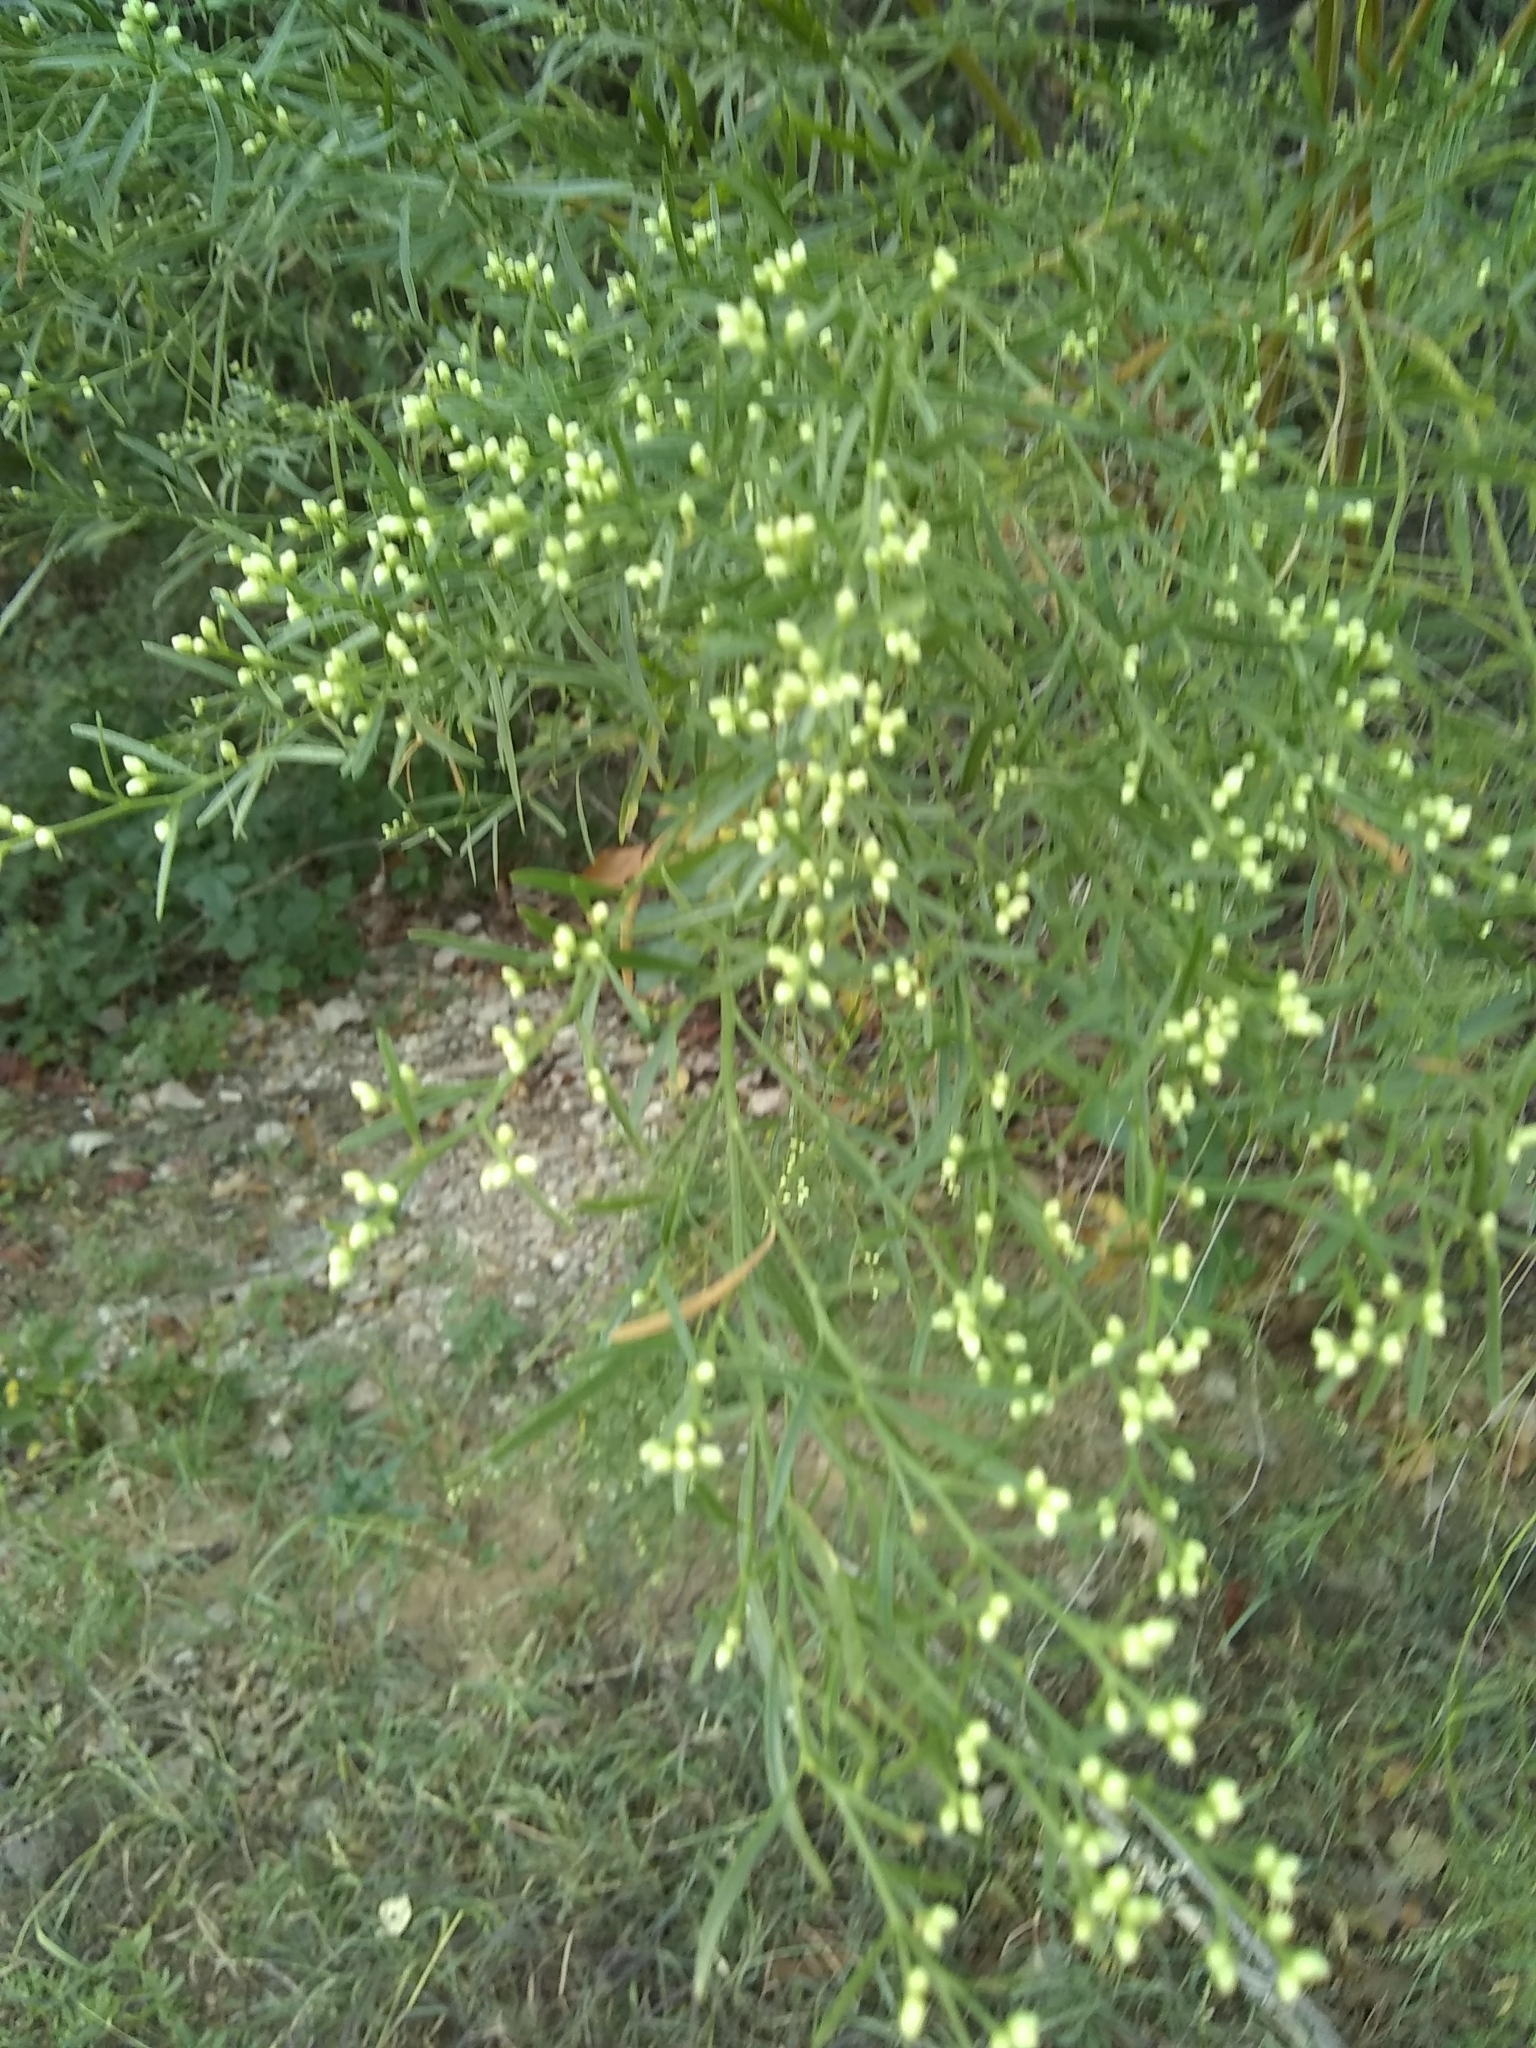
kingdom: Plantae
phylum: Tracheophyta
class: Magnoliopsida
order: Asterales
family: Asteraceae
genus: Baccharis
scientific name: Baccharis neglecta
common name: Roosevelt-weed
